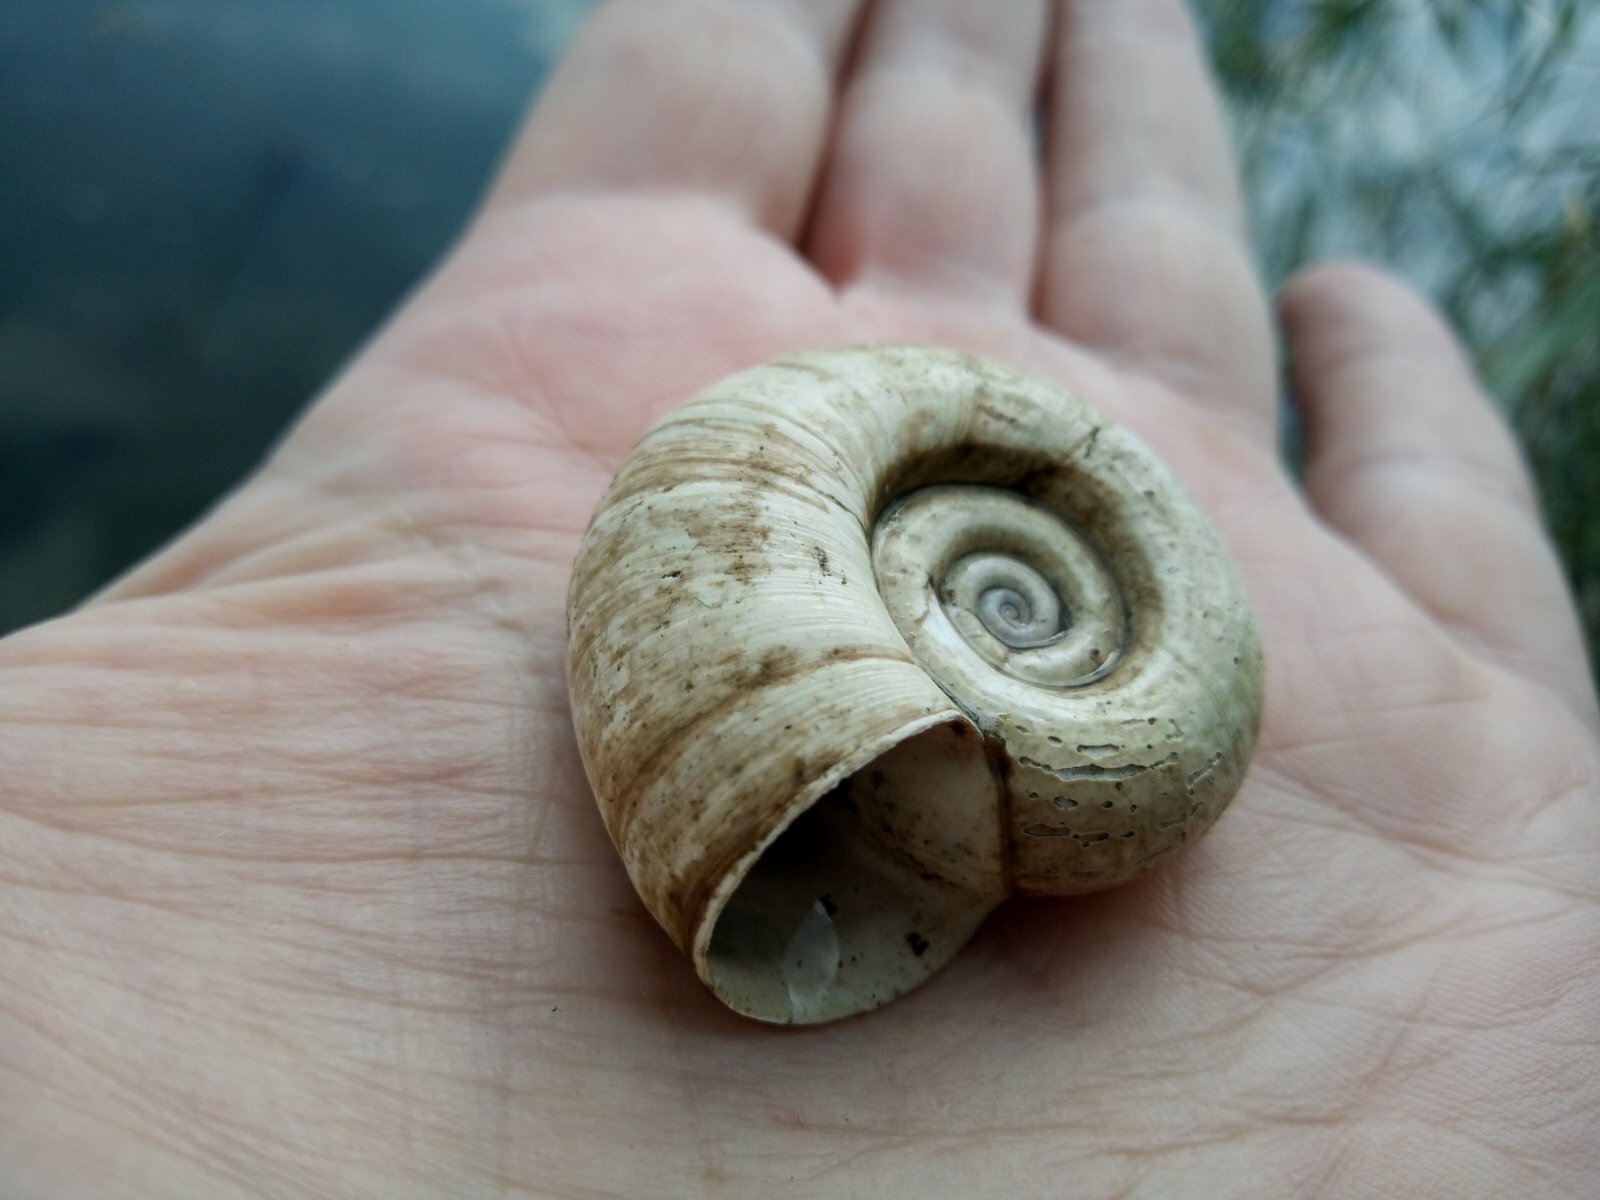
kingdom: Animalia
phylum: Mollusca
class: Gastropoda
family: Planorbidae
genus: Planorbarius
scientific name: Planorbarius corneus
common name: Great ramshorn
